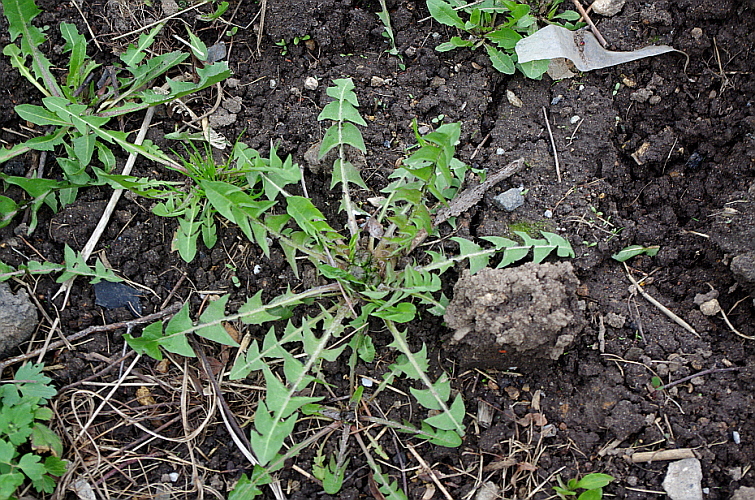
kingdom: Plantae
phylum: Tracheophyta
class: Magnoliopsida
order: Asterales
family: Asteraceae
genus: Taraxacum
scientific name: Taraxacum officinale
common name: Common dandelion
